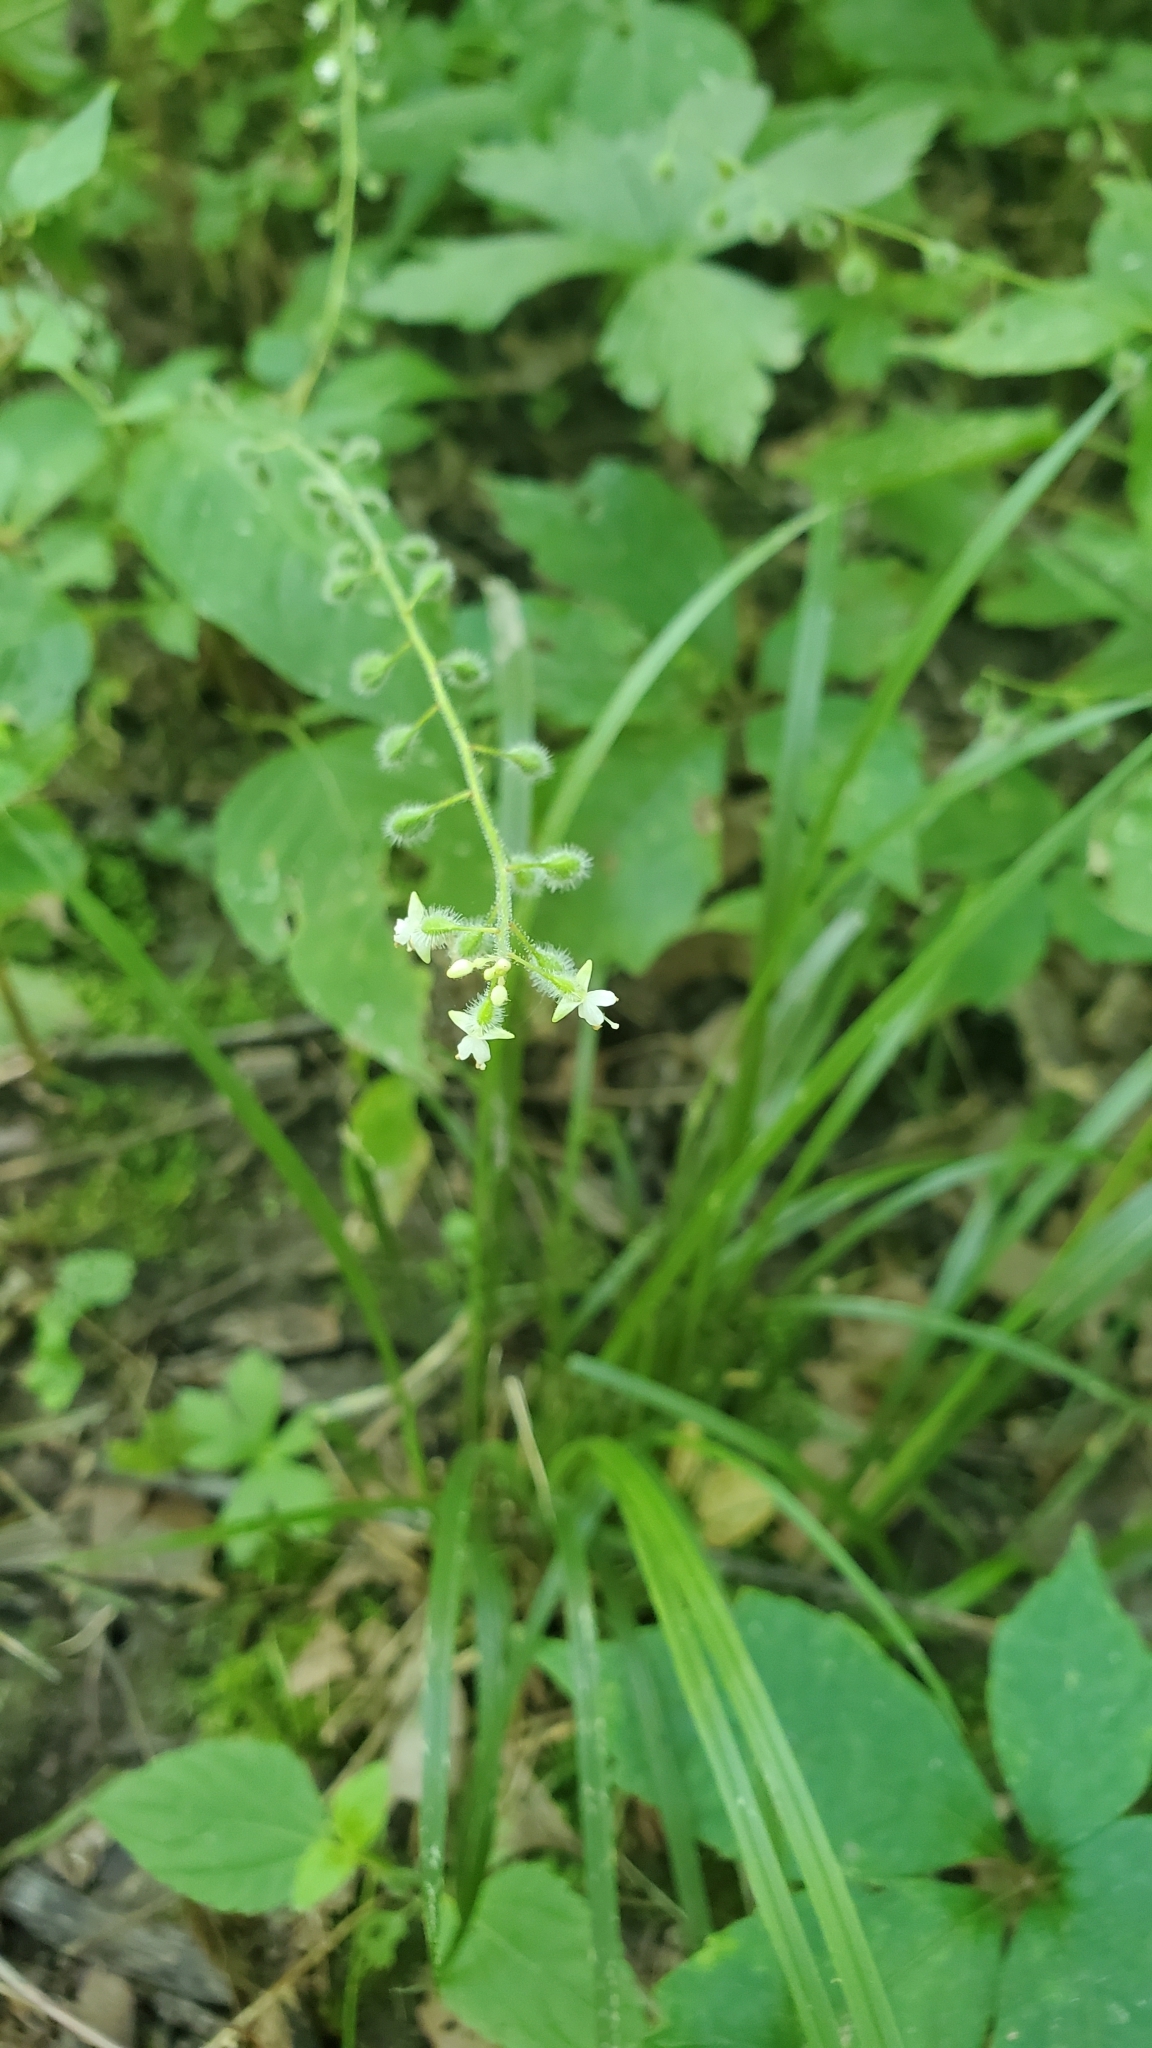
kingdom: Plantae
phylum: Tracheophyta
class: Magnoliopsida
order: Myrtales
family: Onagraceae
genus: Circaea
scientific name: Circaea canadensis
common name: Broad-leaved enchanter's nightshade
